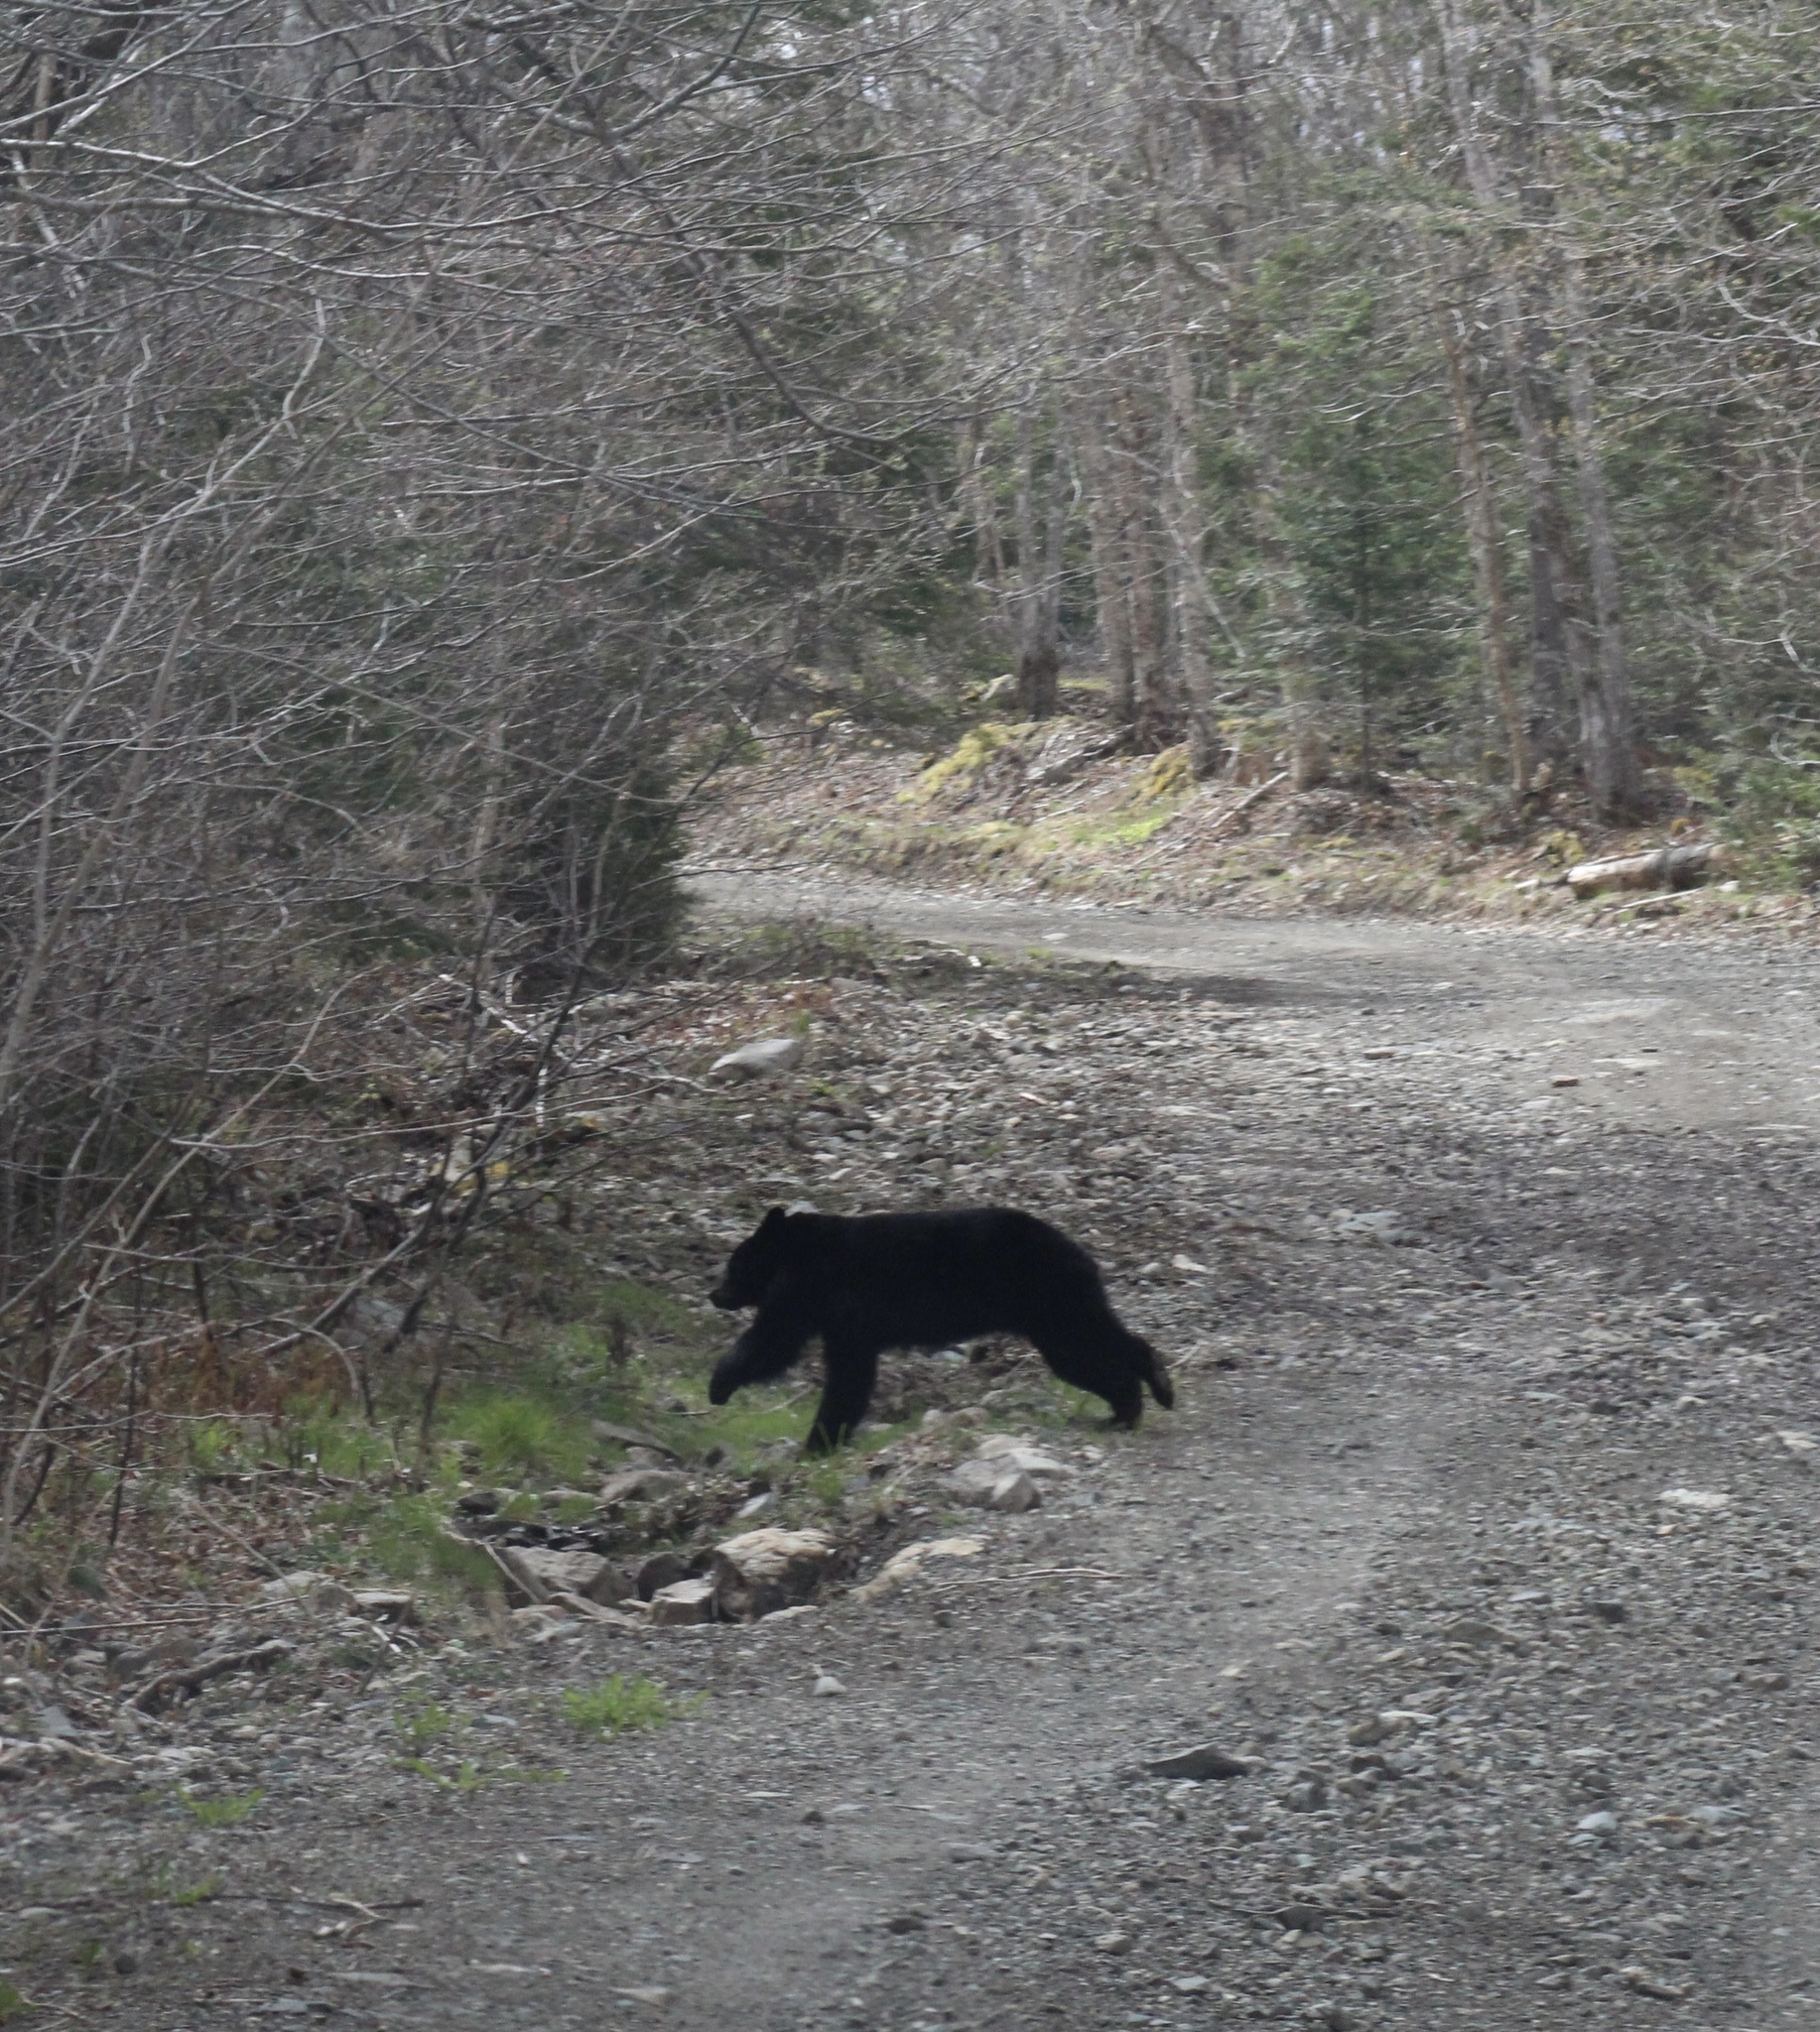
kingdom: Animalia
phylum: Chordata
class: Mammalia
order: Carnivora
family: Ursidae
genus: Ursus
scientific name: Ursus americanus
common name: American black bear
